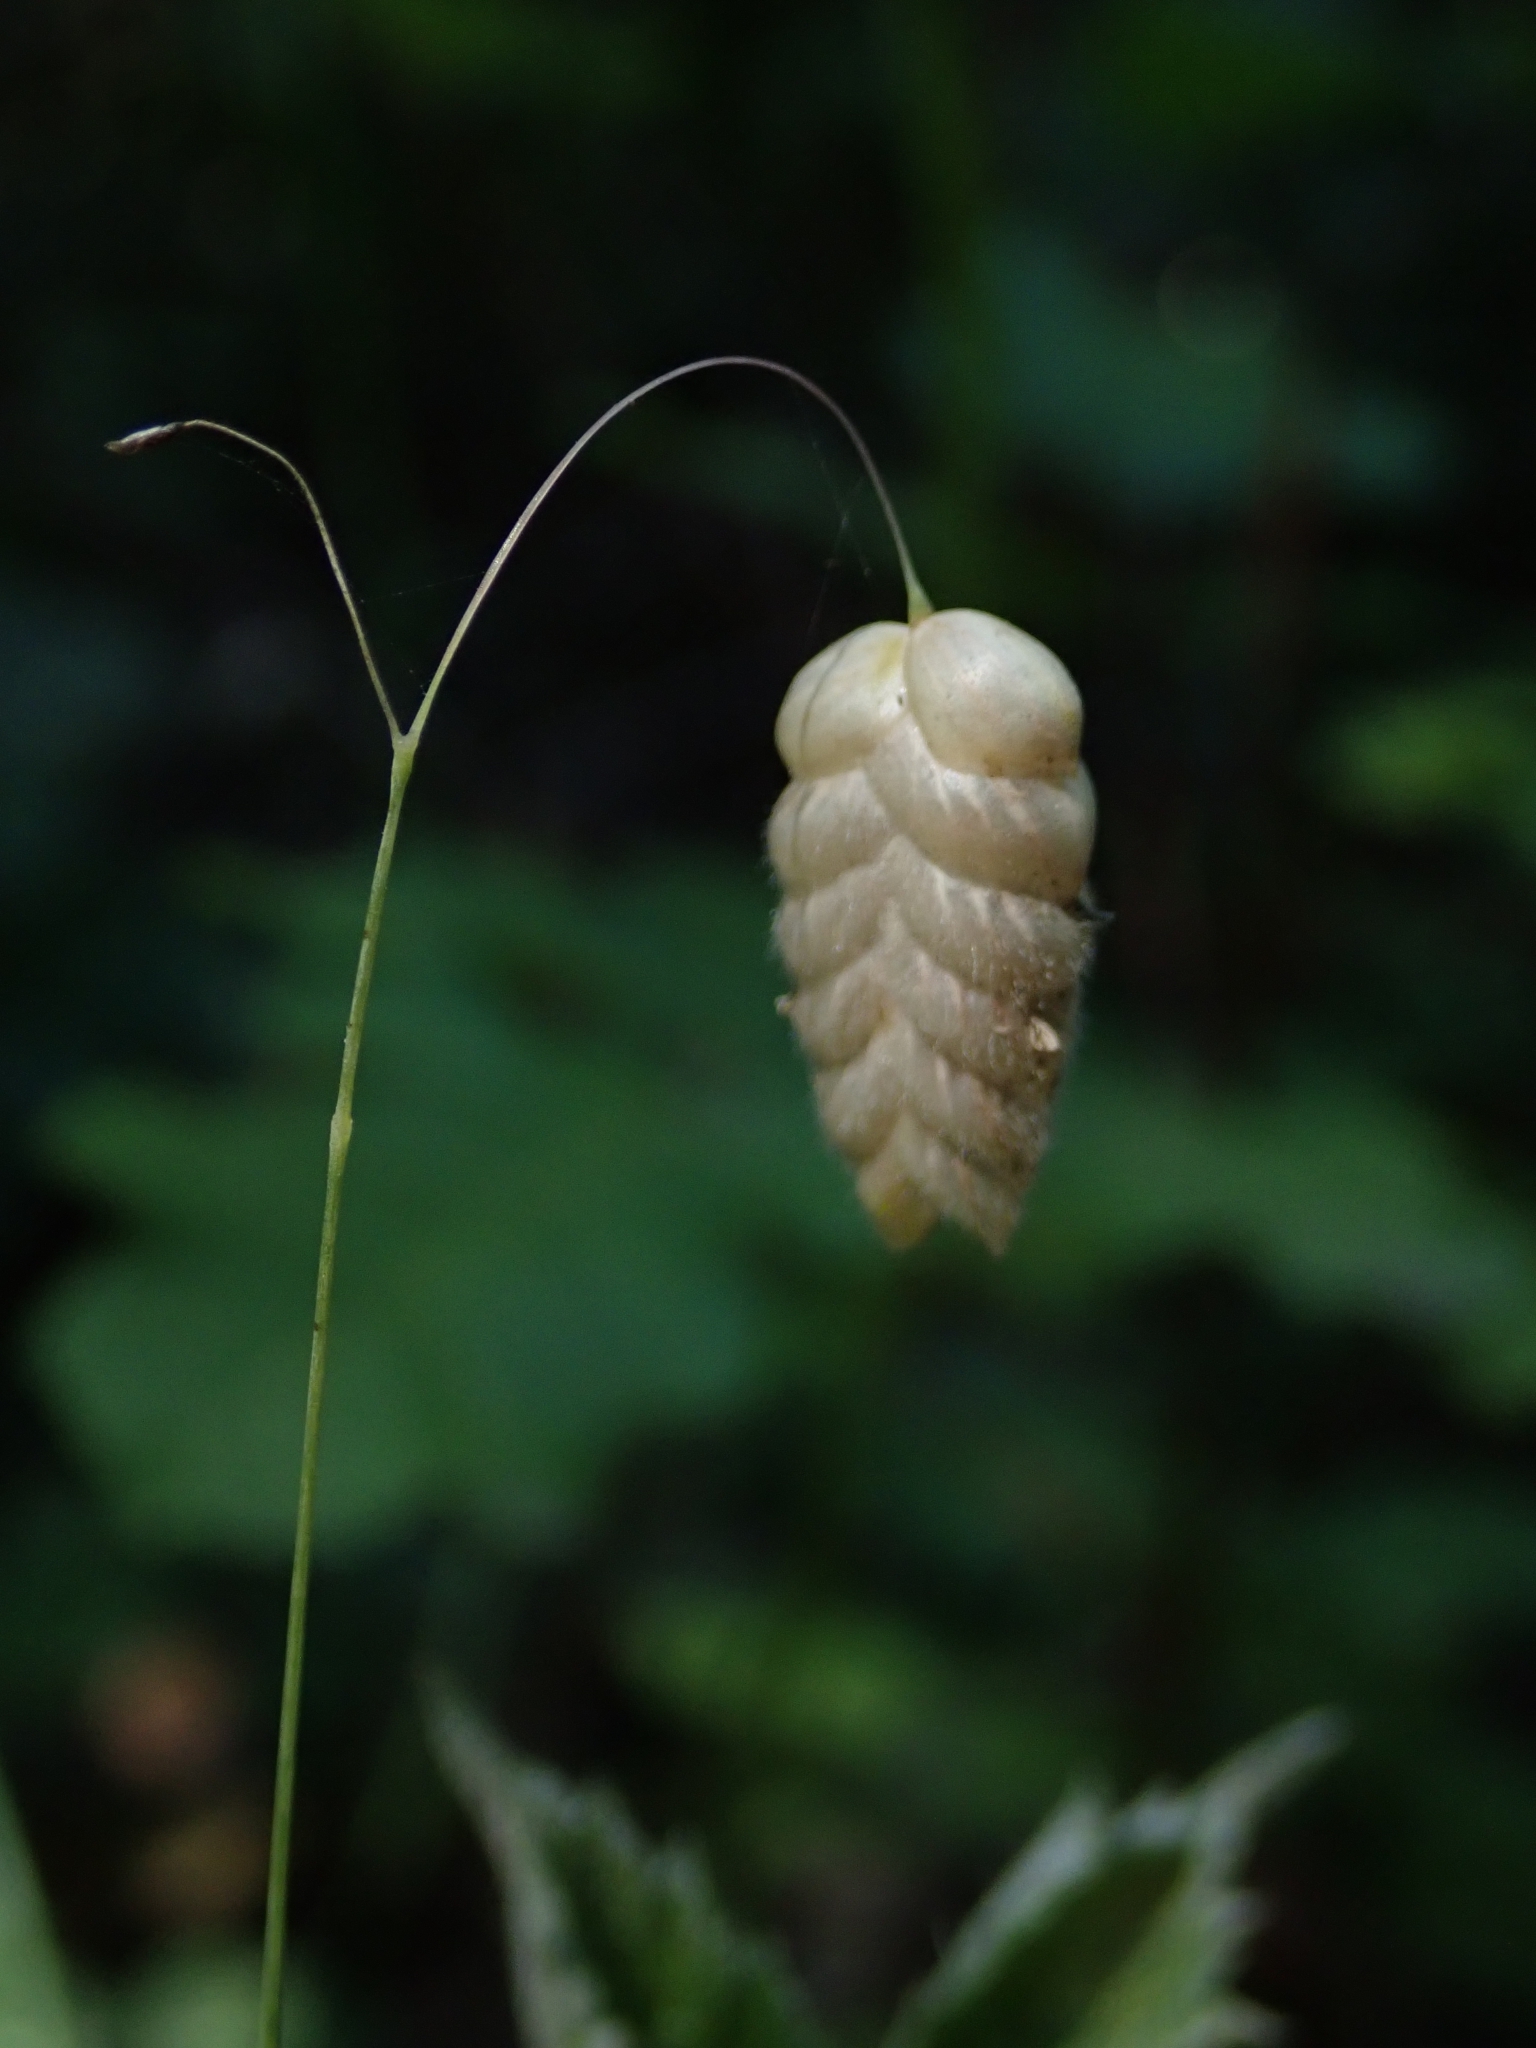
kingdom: Plantae
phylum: Tracheophyta
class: Liliopsida
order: Poales
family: Poaceae
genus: Briza
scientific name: Briza maxima
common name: Big quakinggrass
